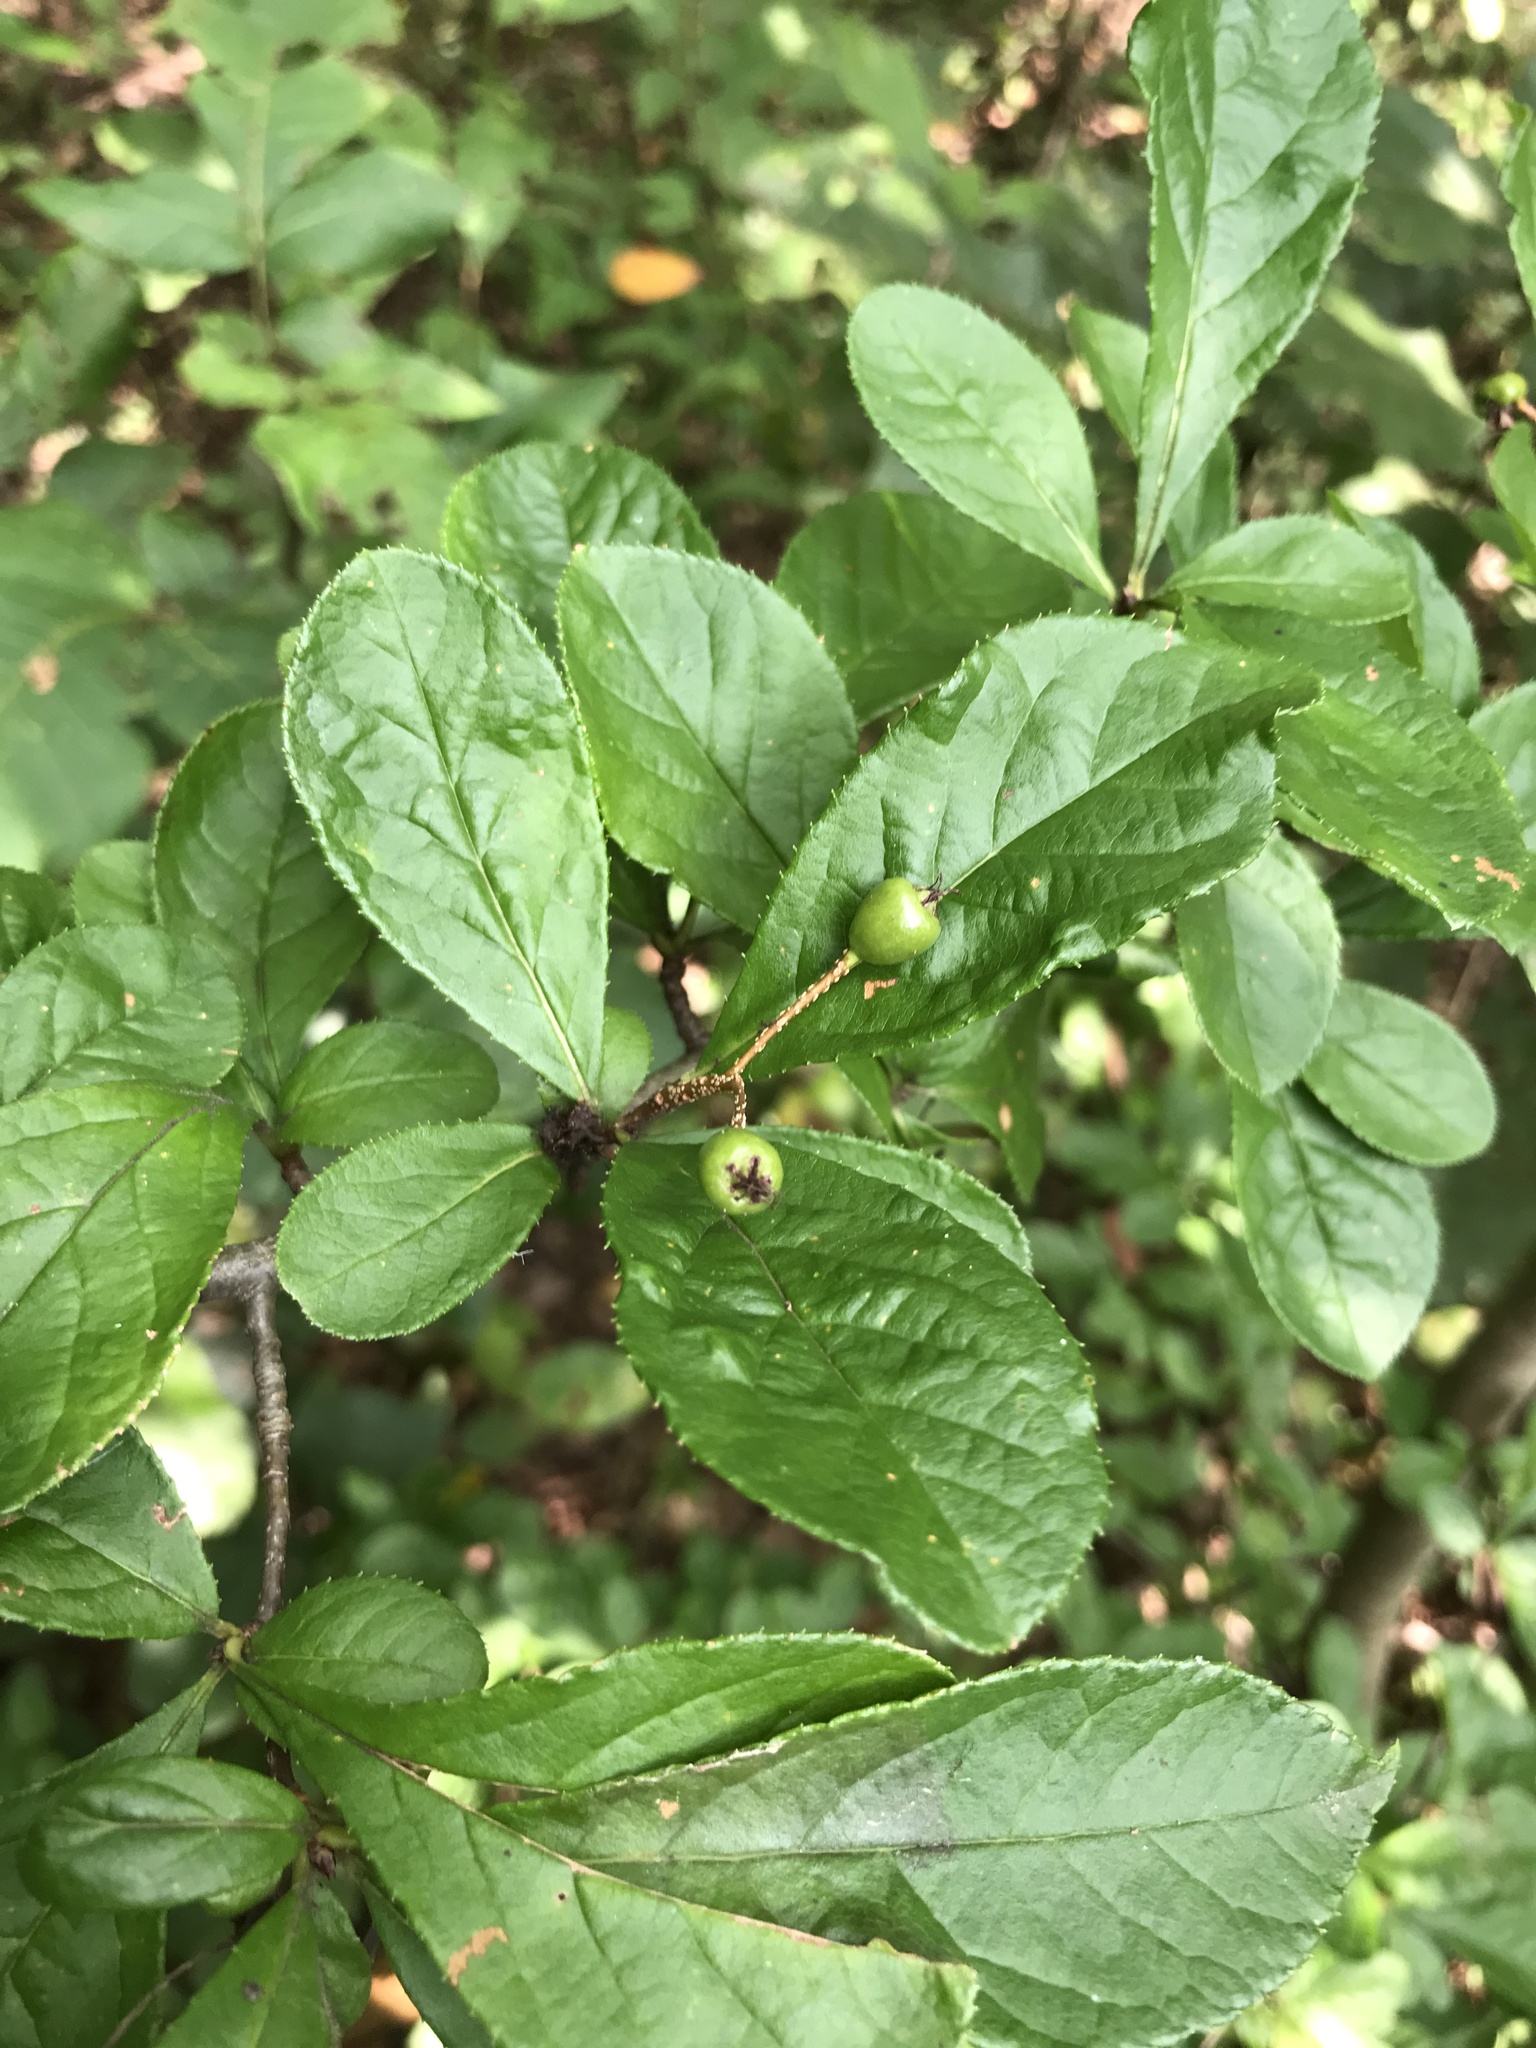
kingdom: Plantae
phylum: Tracheophyta
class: Magnoliopsida
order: Rosales
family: Rosaceae
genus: Pourthiaea
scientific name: Pourthiaea villosa
